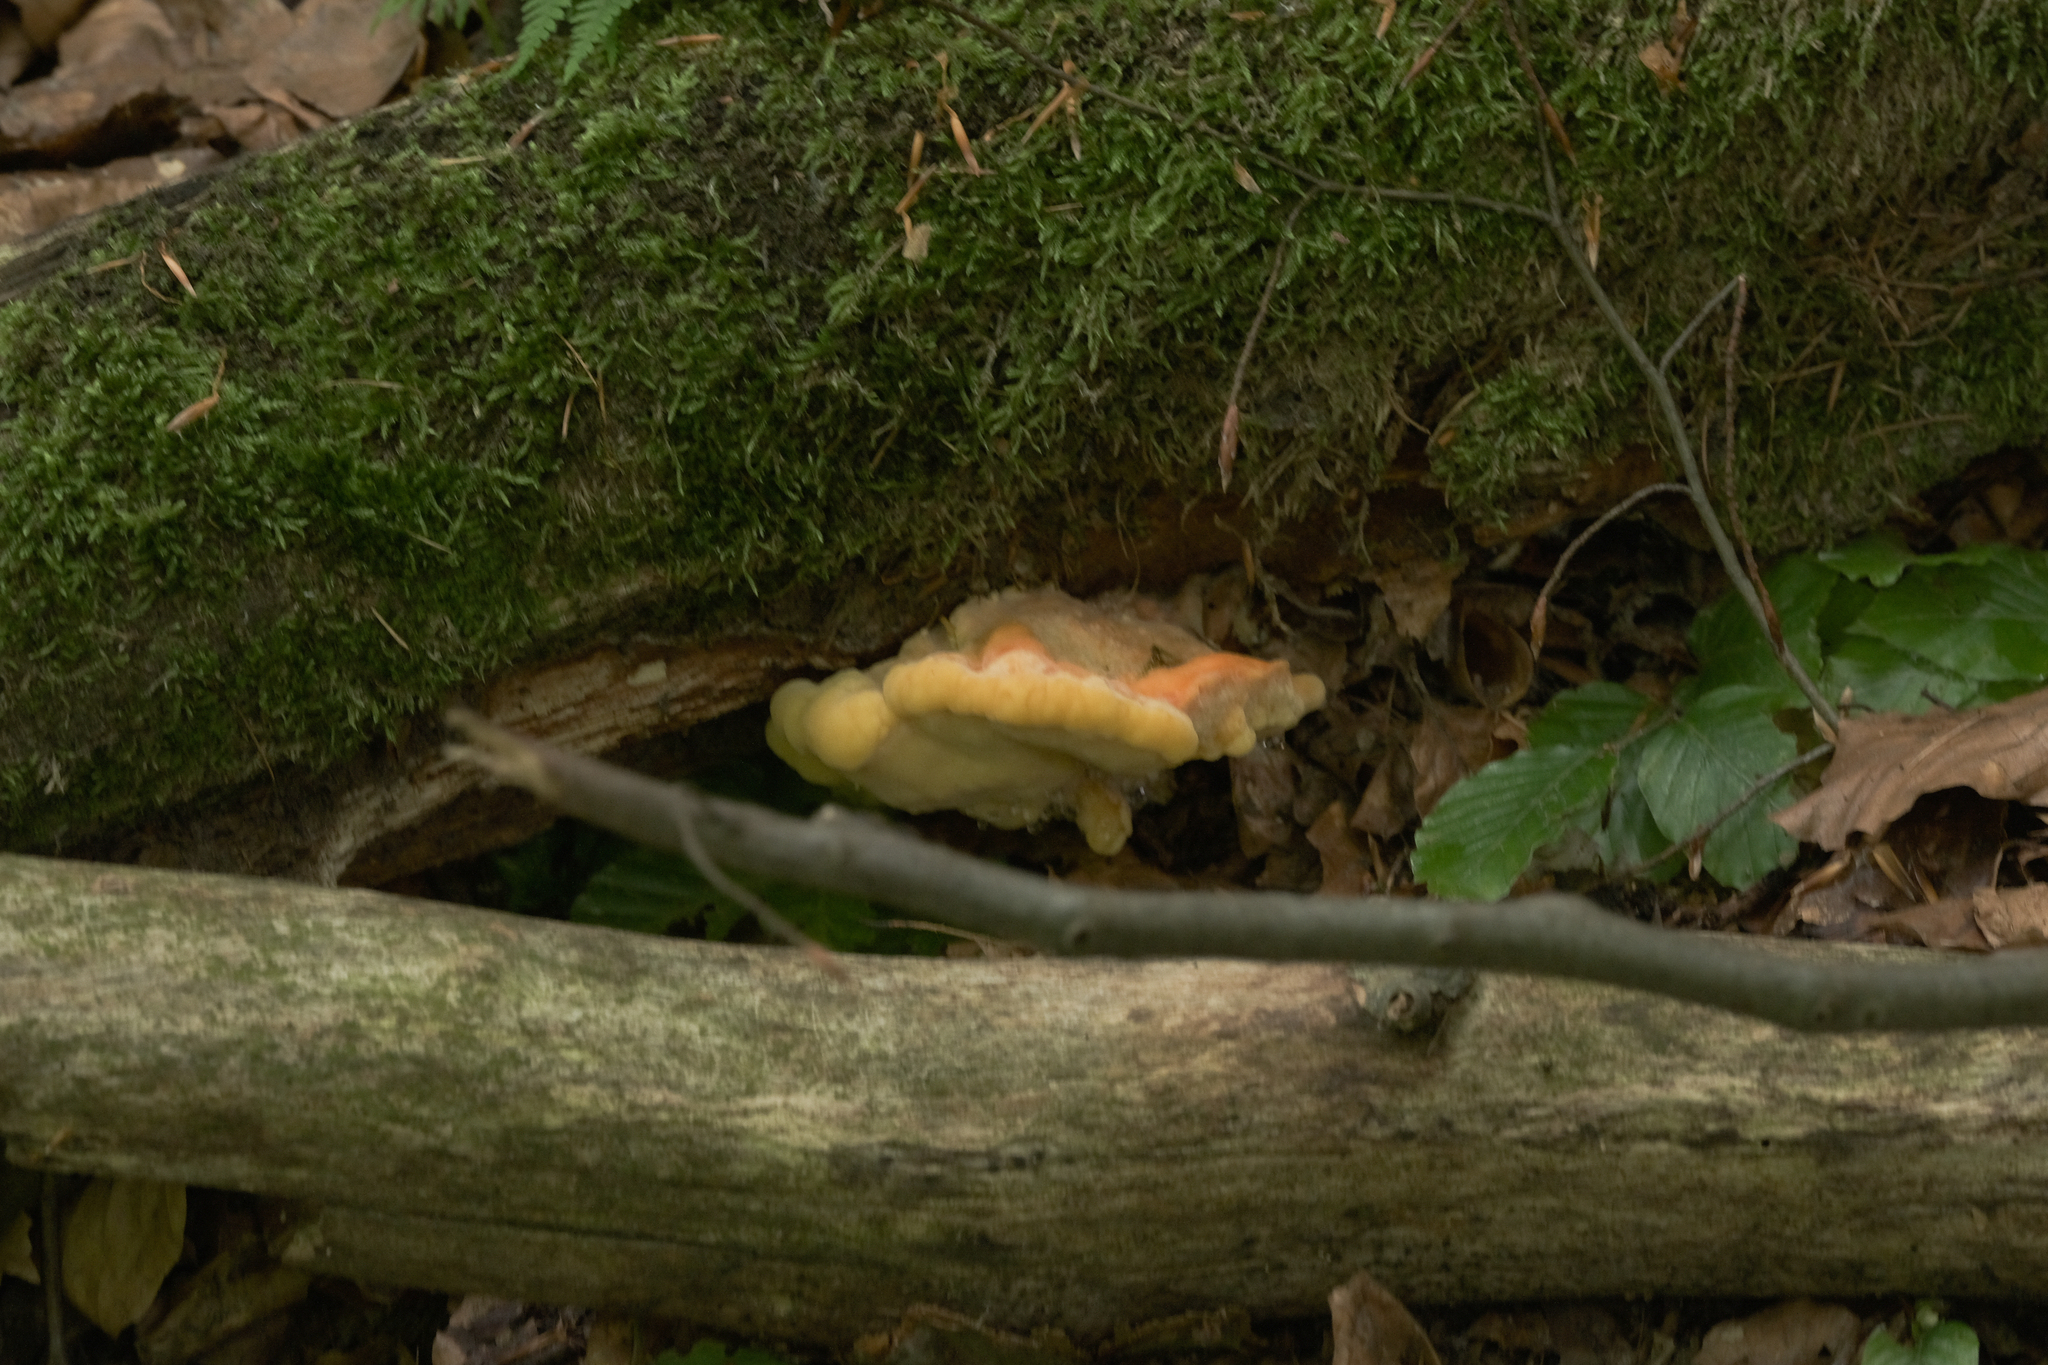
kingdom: Fungi
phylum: Basidiomycota
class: Agaricomycetes
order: Polyporales
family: Laetiporaceae
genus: Laetiporus
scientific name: Laetiporus sulphureus
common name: Chicken of the woods
